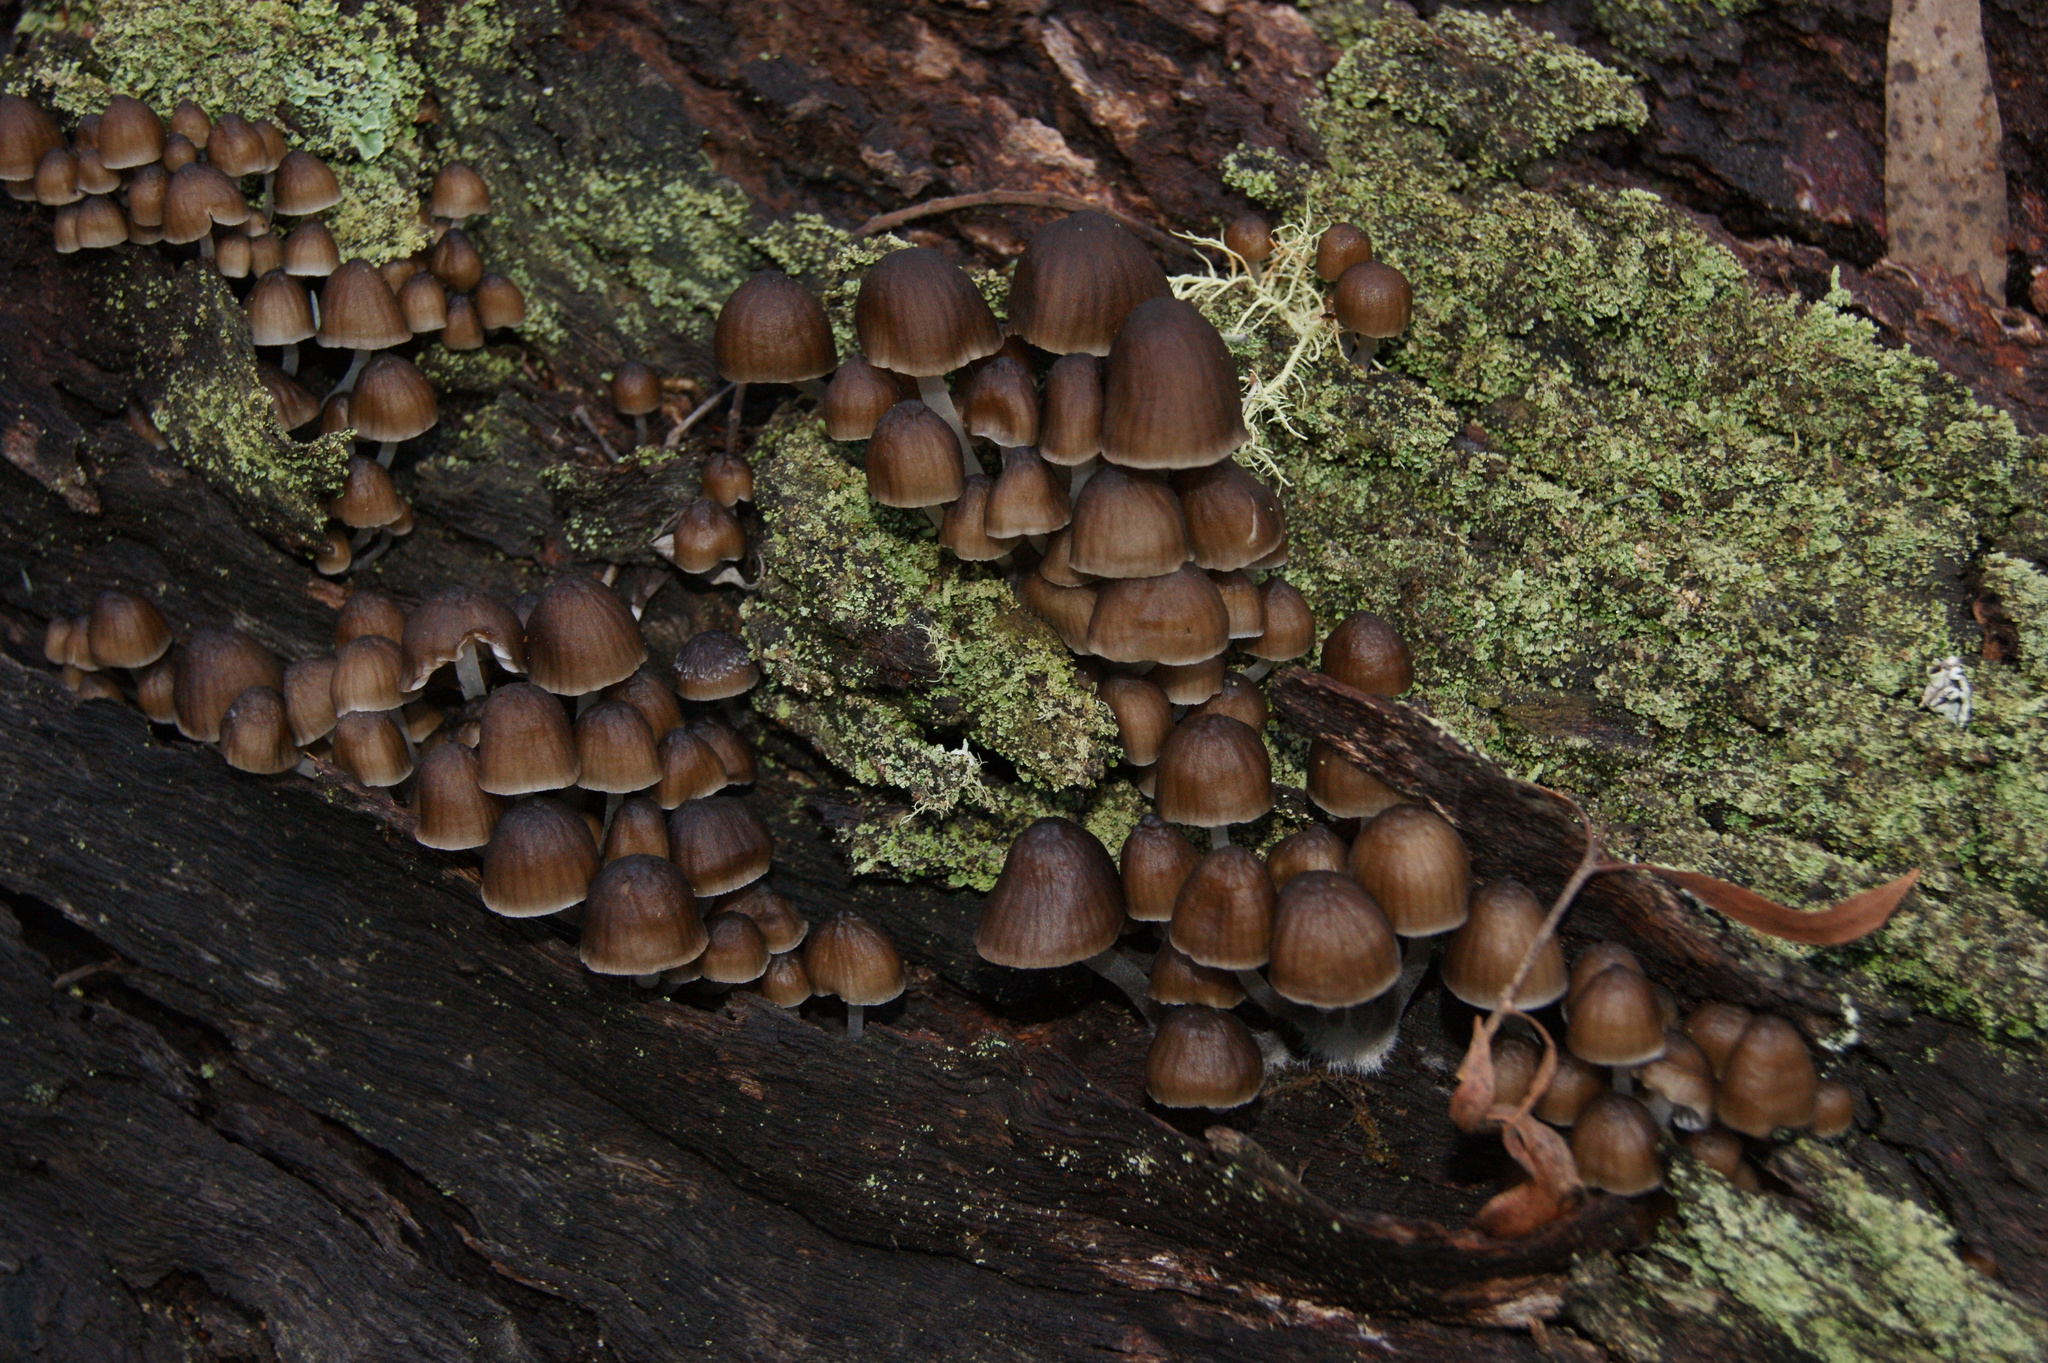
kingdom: Fungi
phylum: Basidiomycota
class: Agaricomycetes
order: Agaricales
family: Mycenaceae
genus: Mycena
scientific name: Mycena subgalericulata
